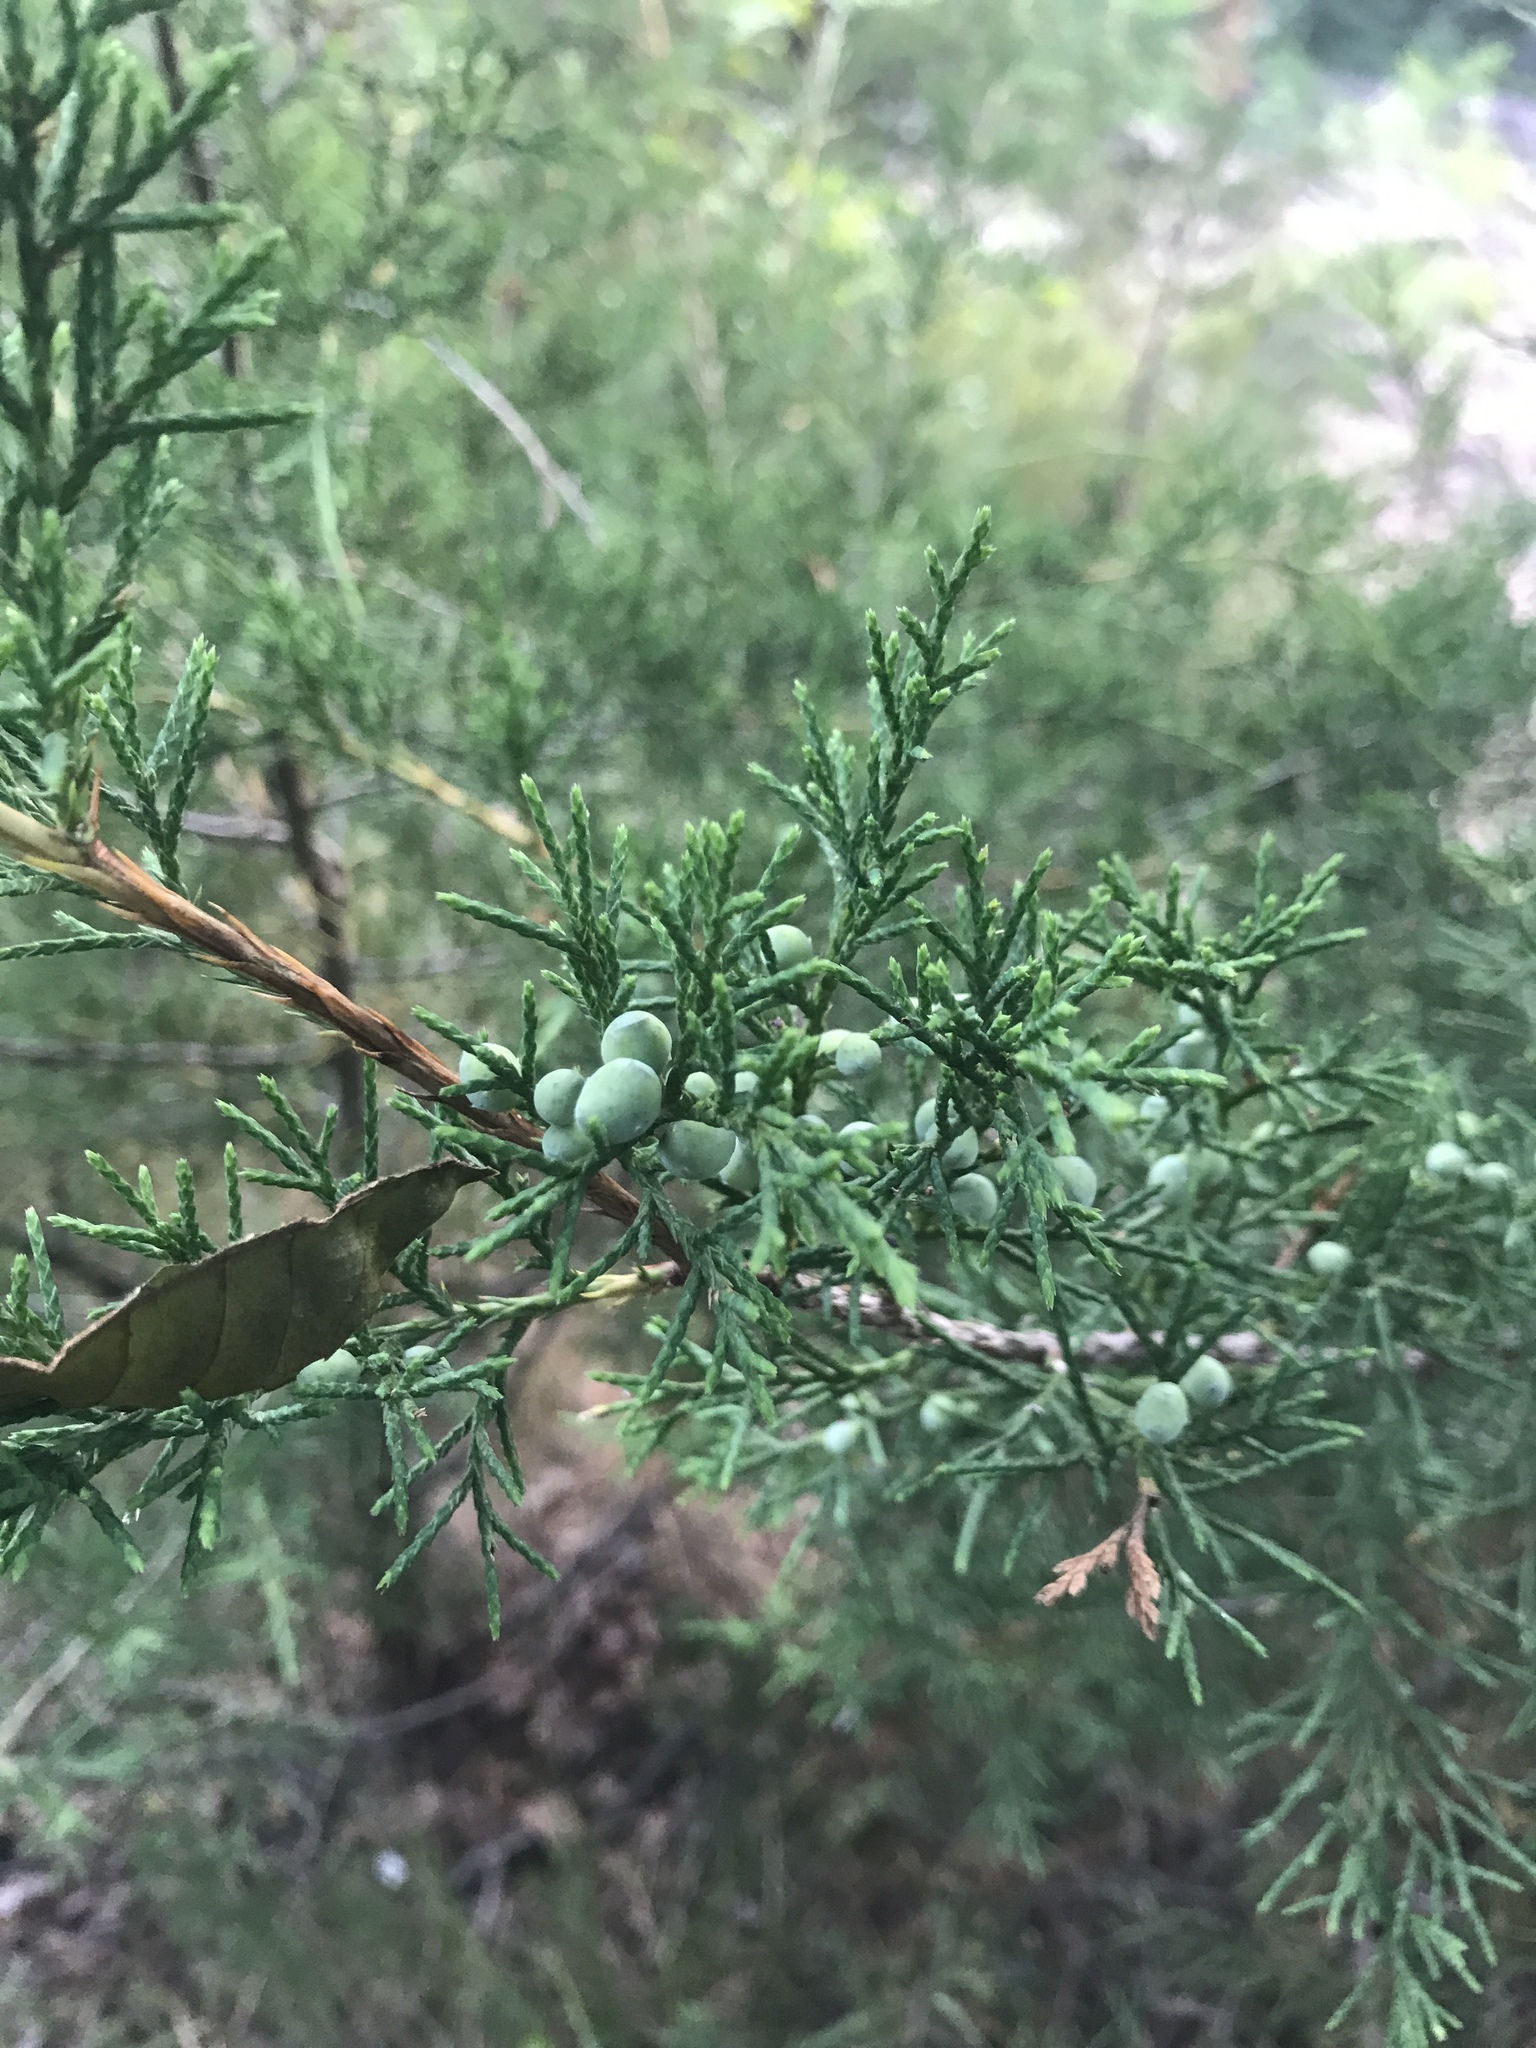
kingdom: Plantae
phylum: Tracheophyta
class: Pinopsida
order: Pinales
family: Cupressaceae
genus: Juniperus
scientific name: Juniperus virginiana
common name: Red juniper
